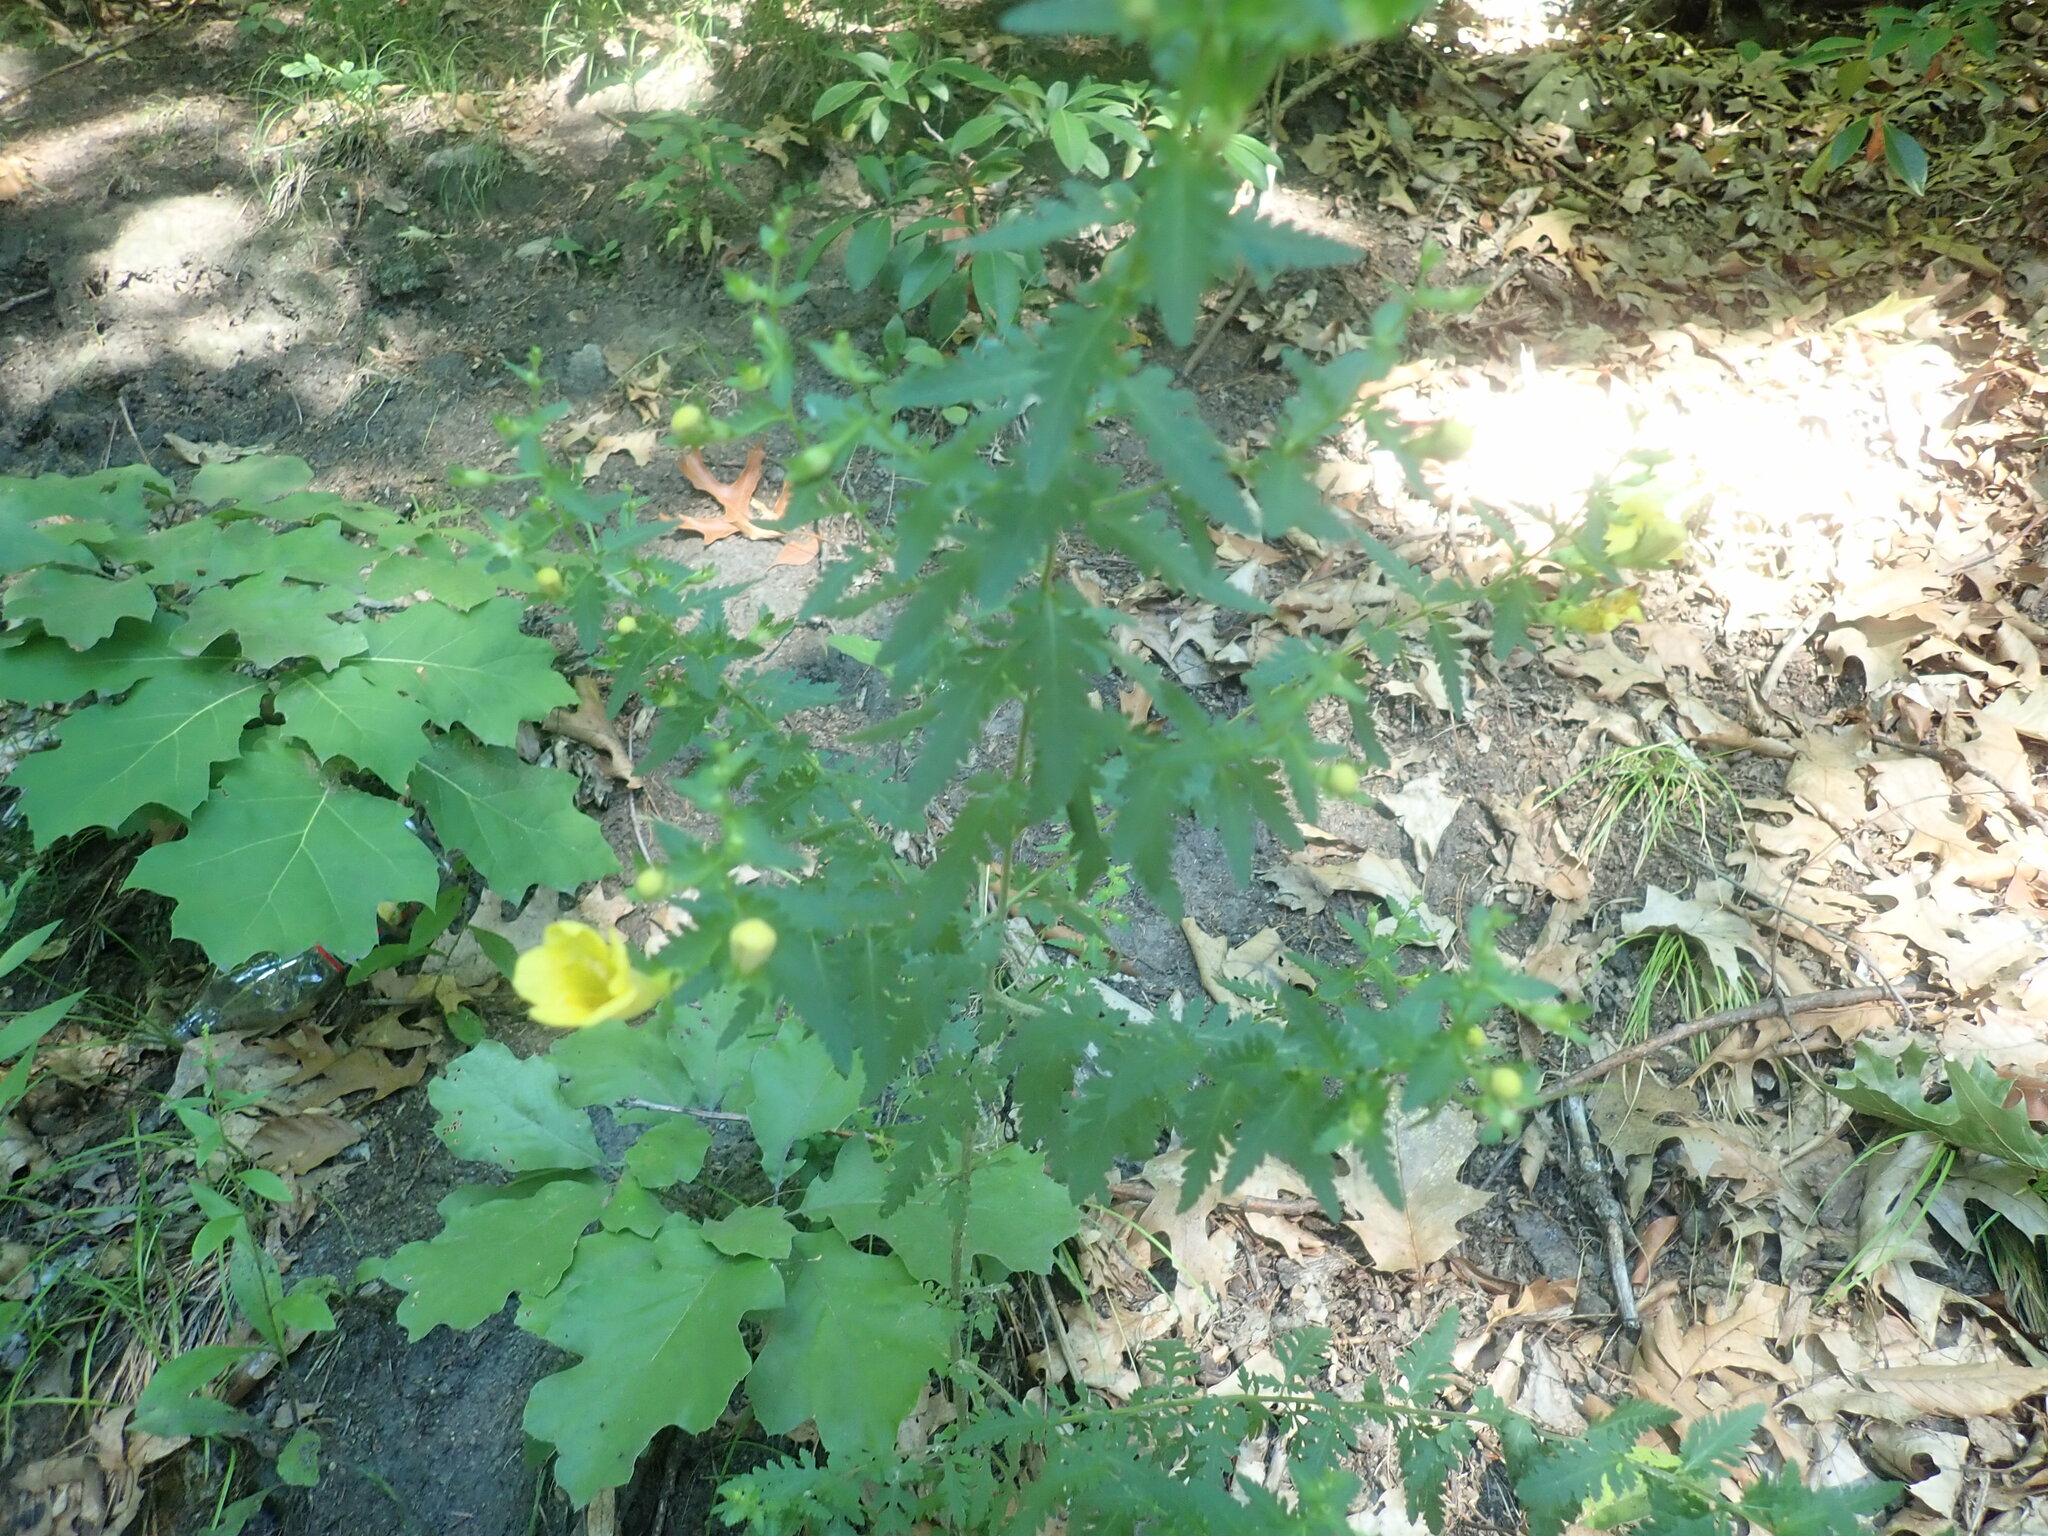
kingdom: Plantae
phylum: Tracheophyta
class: Magnoliopsida
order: Lamiales
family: Orobanchaceae
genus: Aureolaria
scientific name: Aureolaria pedicularia
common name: Annual false foxglove
